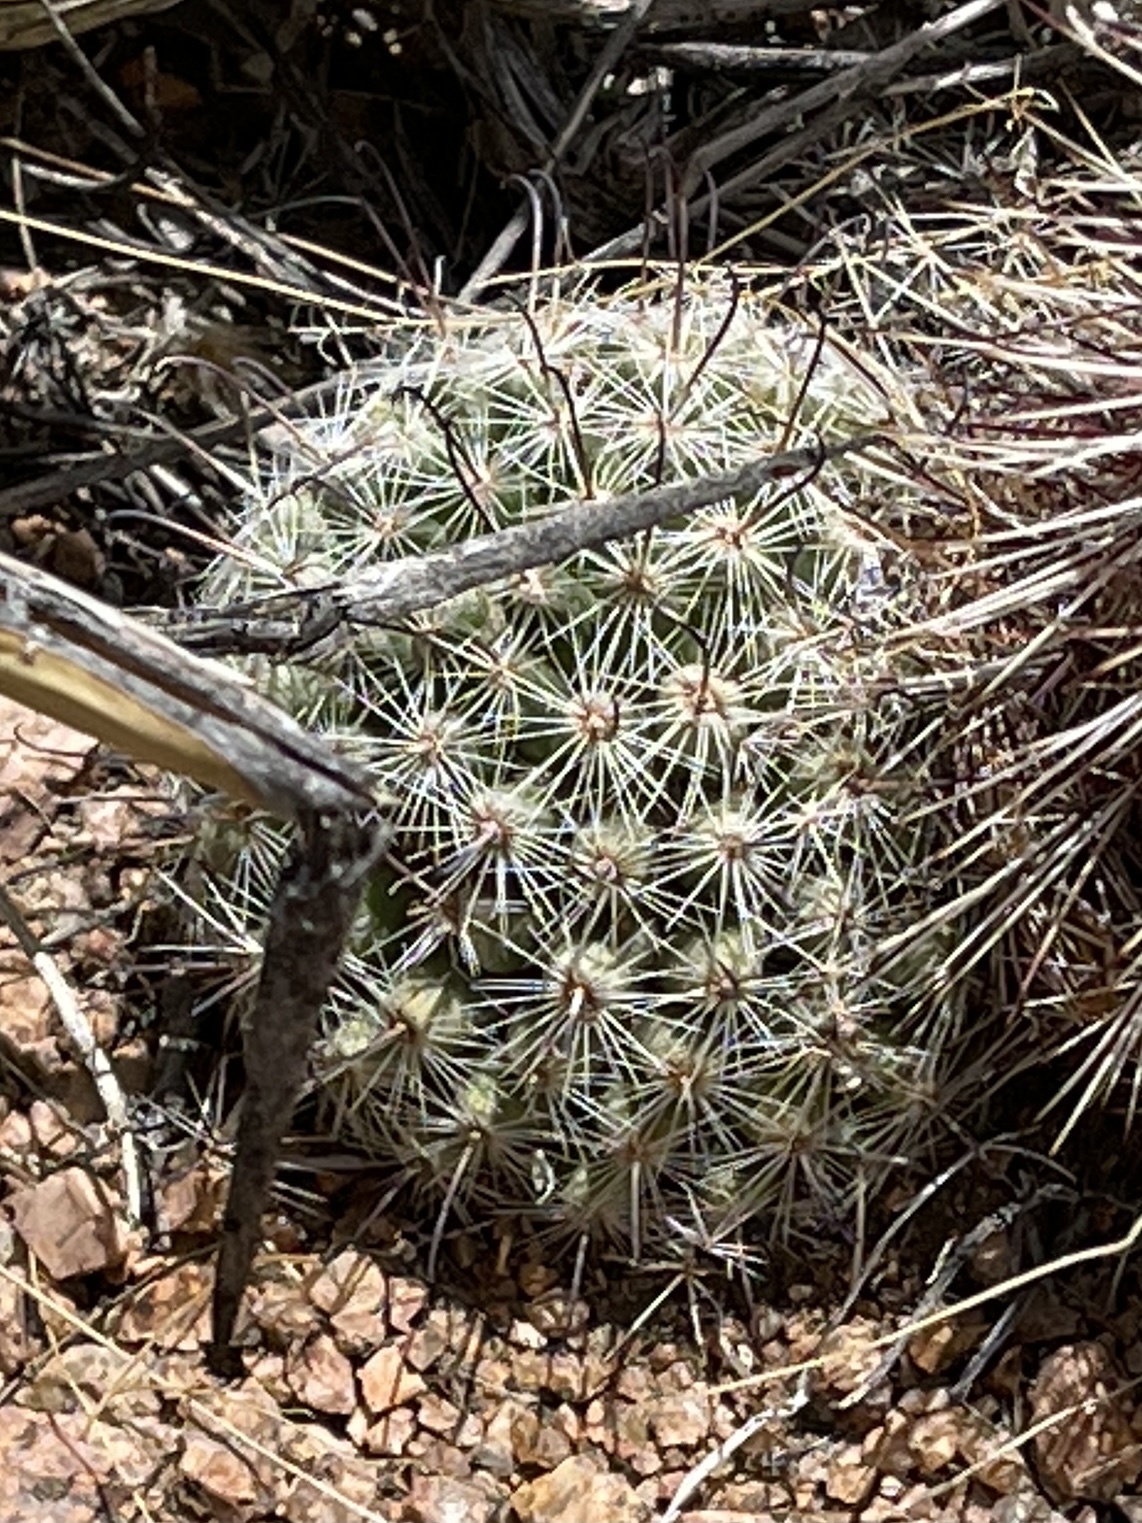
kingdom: Plantae
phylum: Tracheophyta
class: Magnoliopsida
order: Caryophyllales
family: Cactaceae
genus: Cochemiea
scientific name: Cochemiea grahamii
